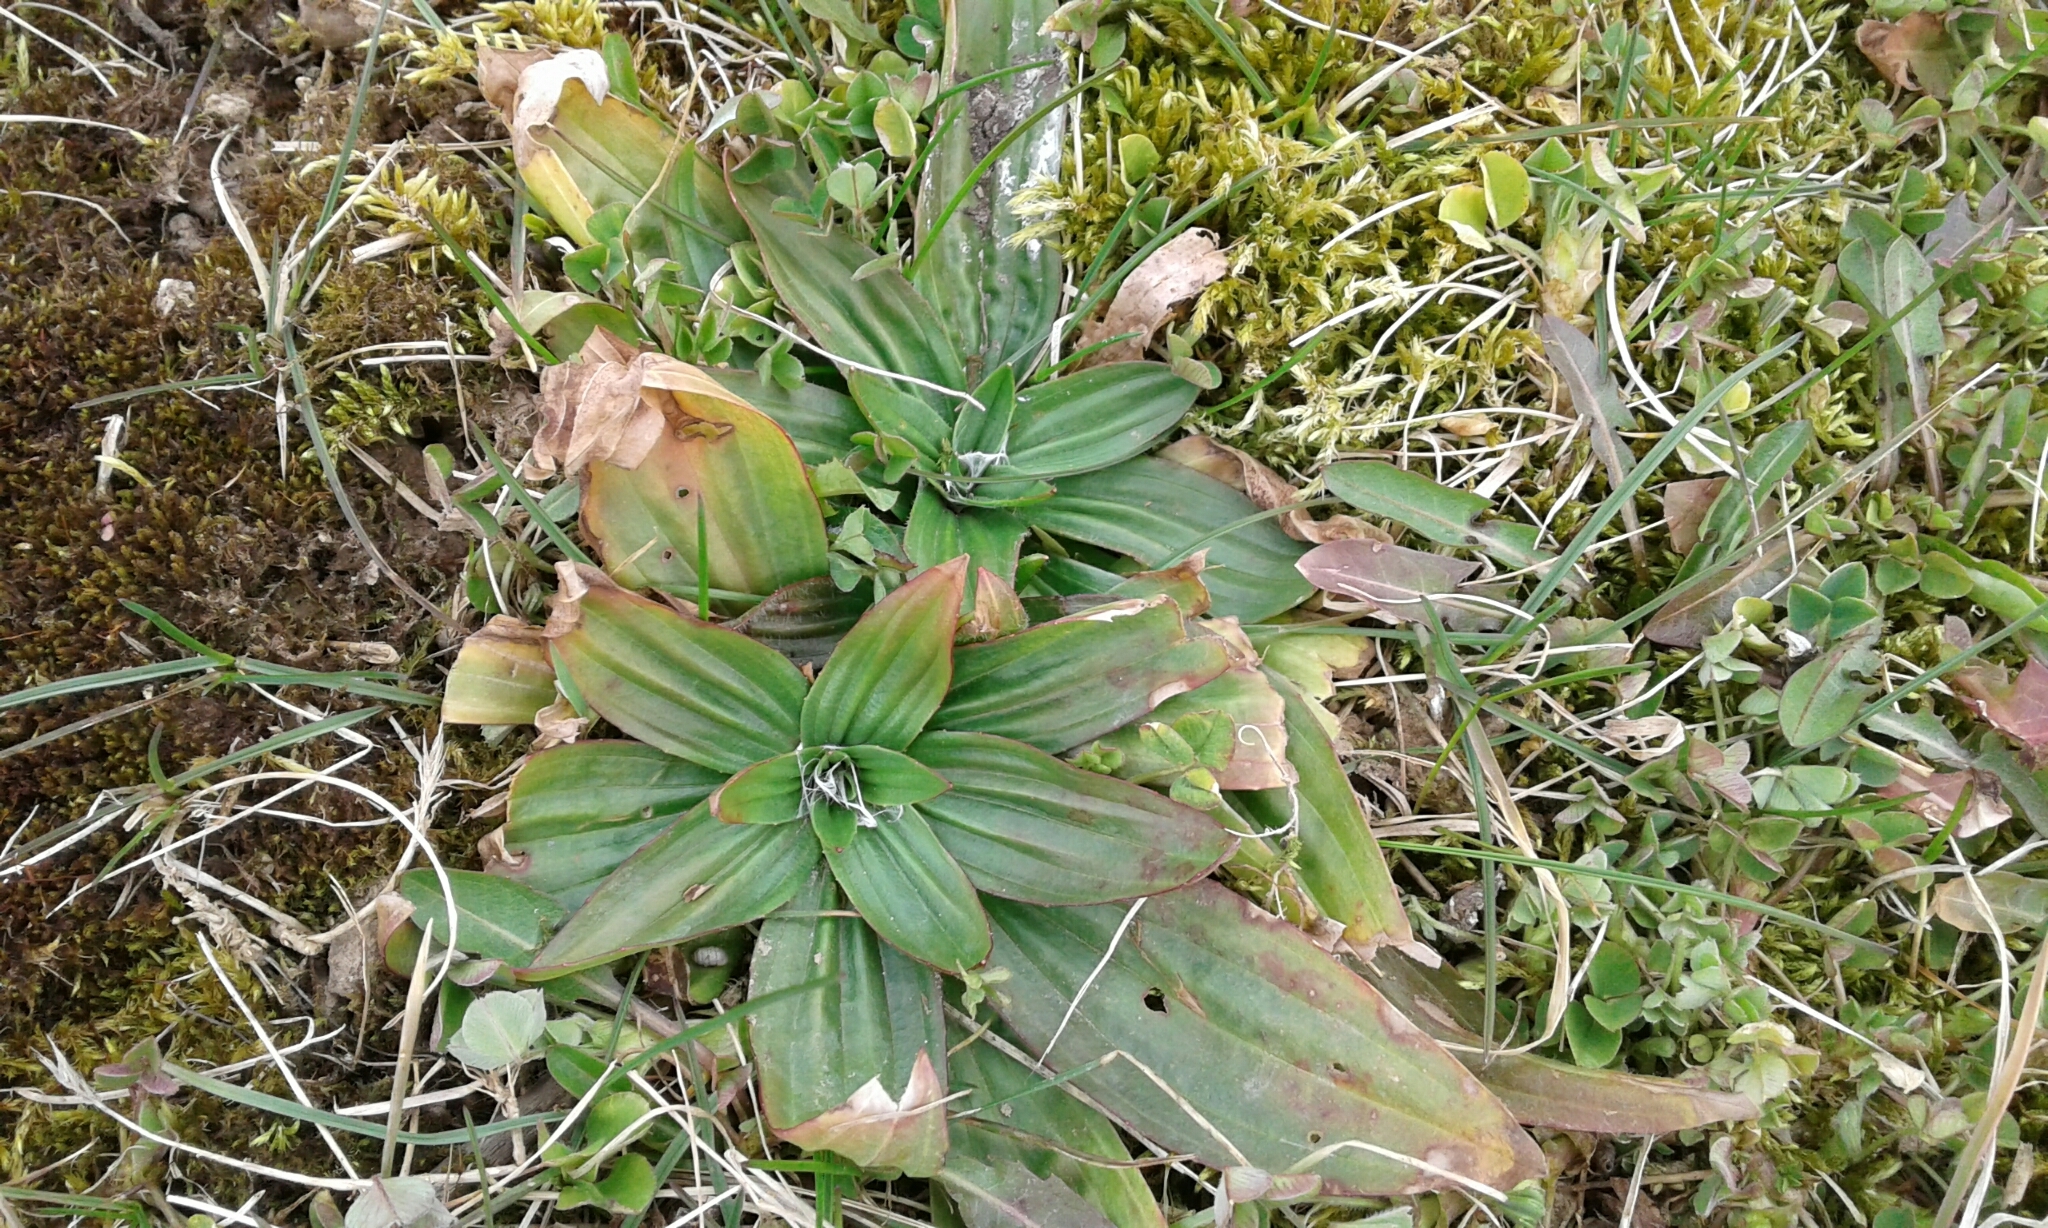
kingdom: Plantae
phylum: Tracheophyta
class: Magnoliopsida
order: Lamiales
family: Plantaginaceae
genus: Plantago
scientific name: Plantago lanceolata
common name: Ribwort plantain
